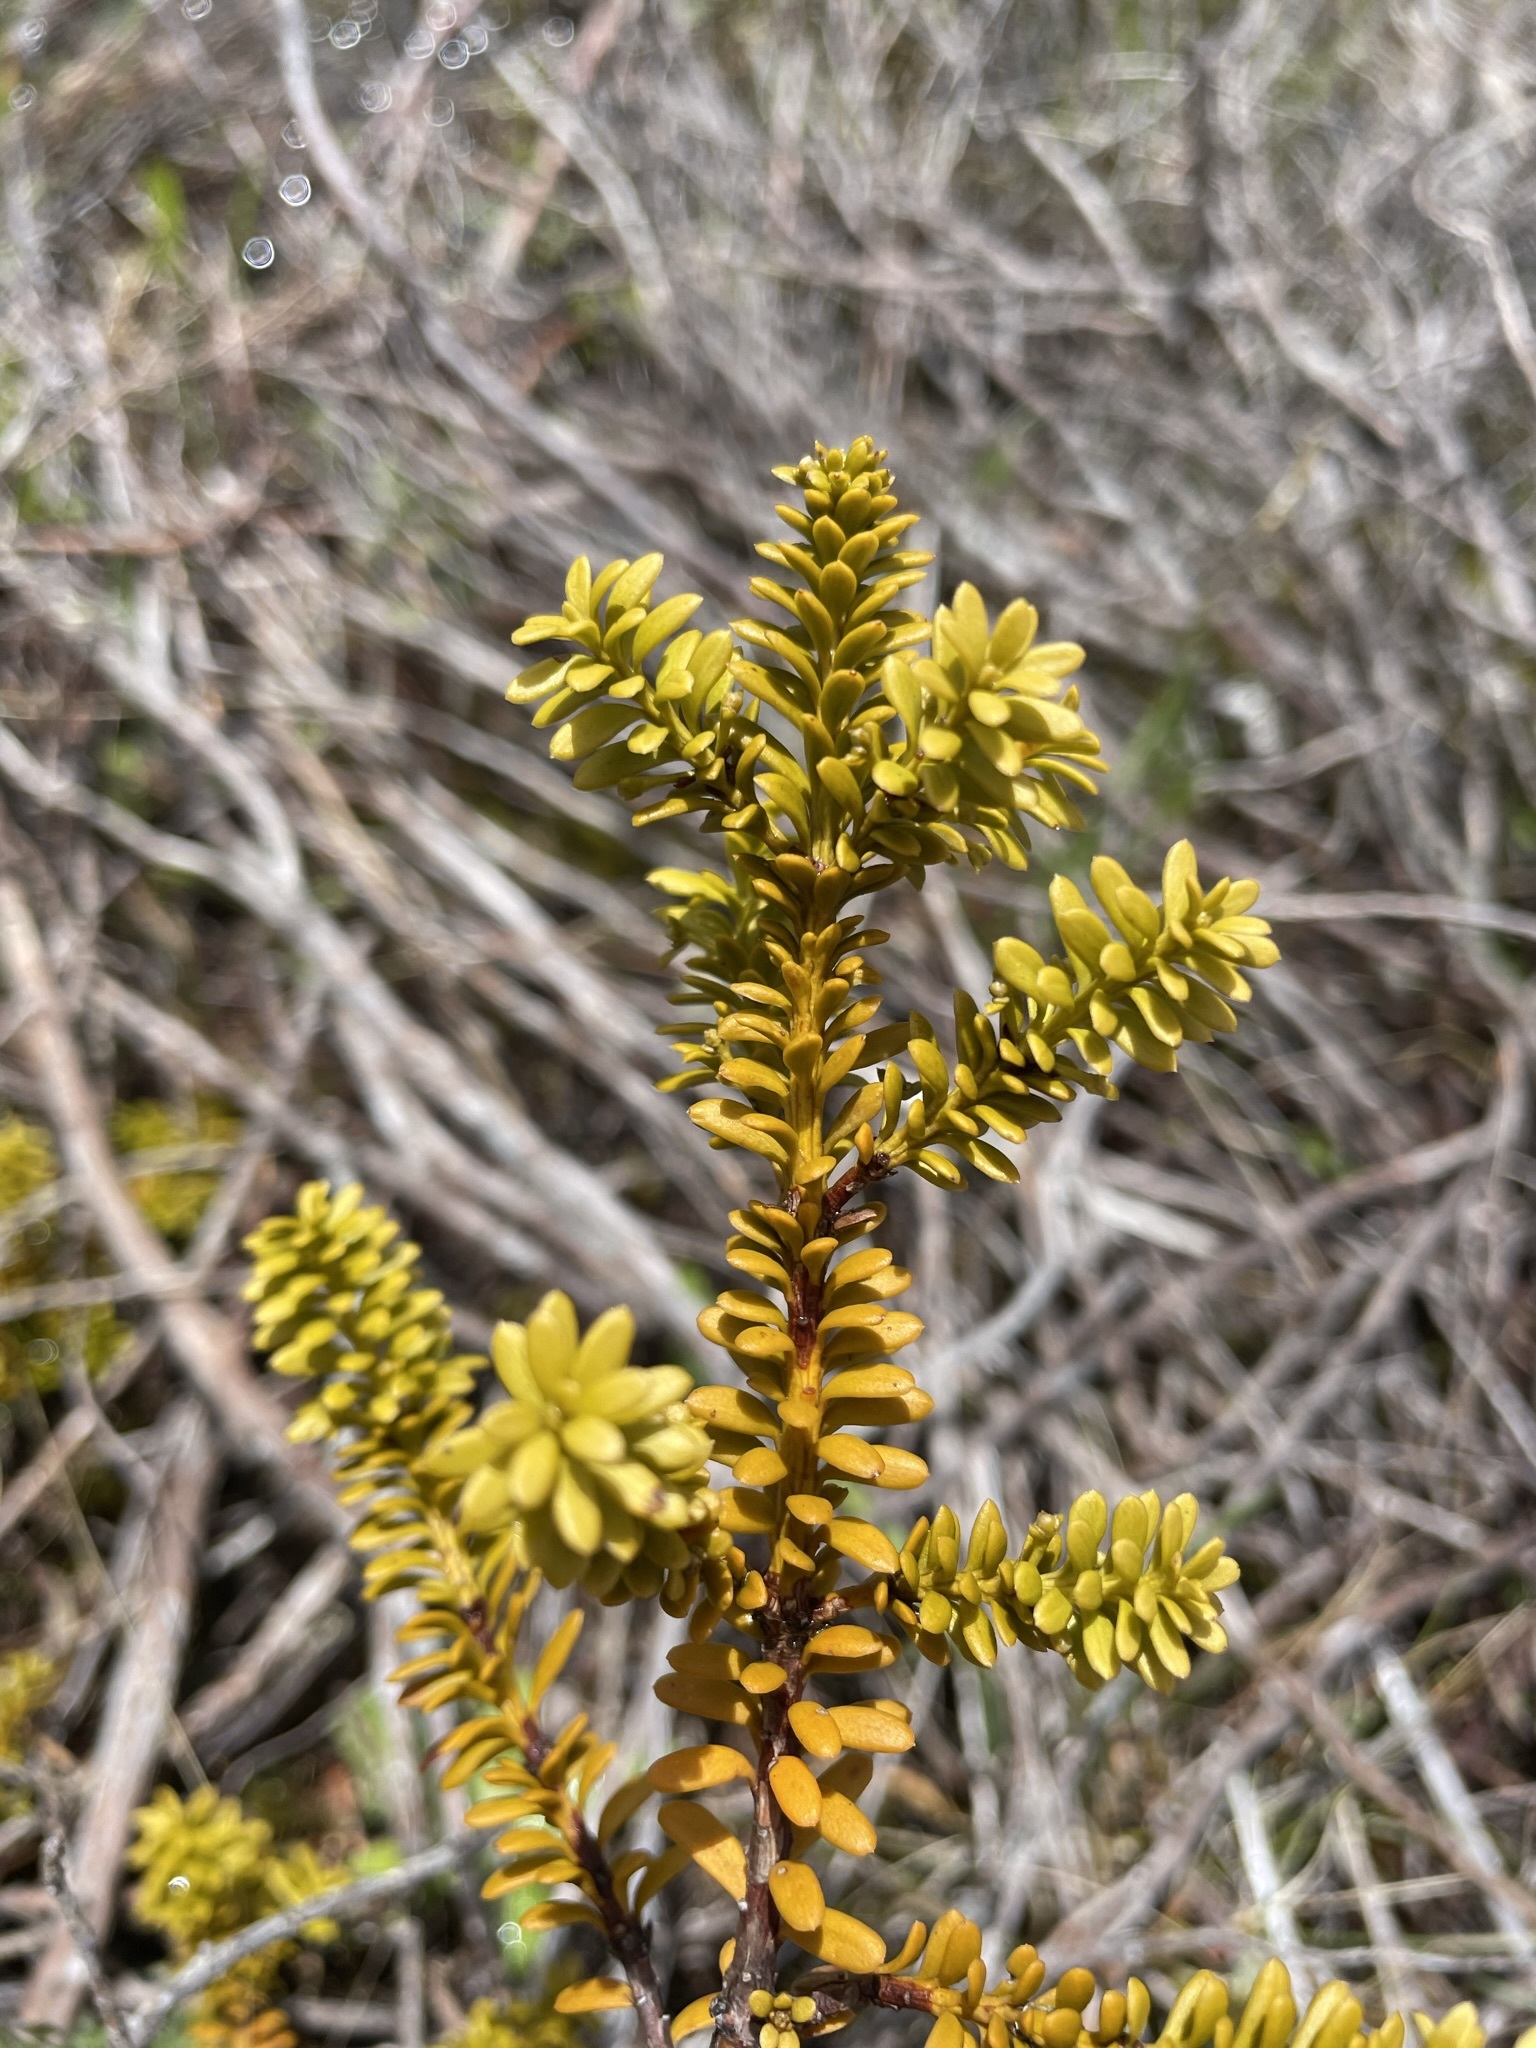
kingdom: Plantae
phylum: Tracheophyta
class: Pinopsida
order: Pinales
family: Podocarpaceae
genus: Podocarpus
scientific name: Podocarpus nivalis
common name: Alpine totara
